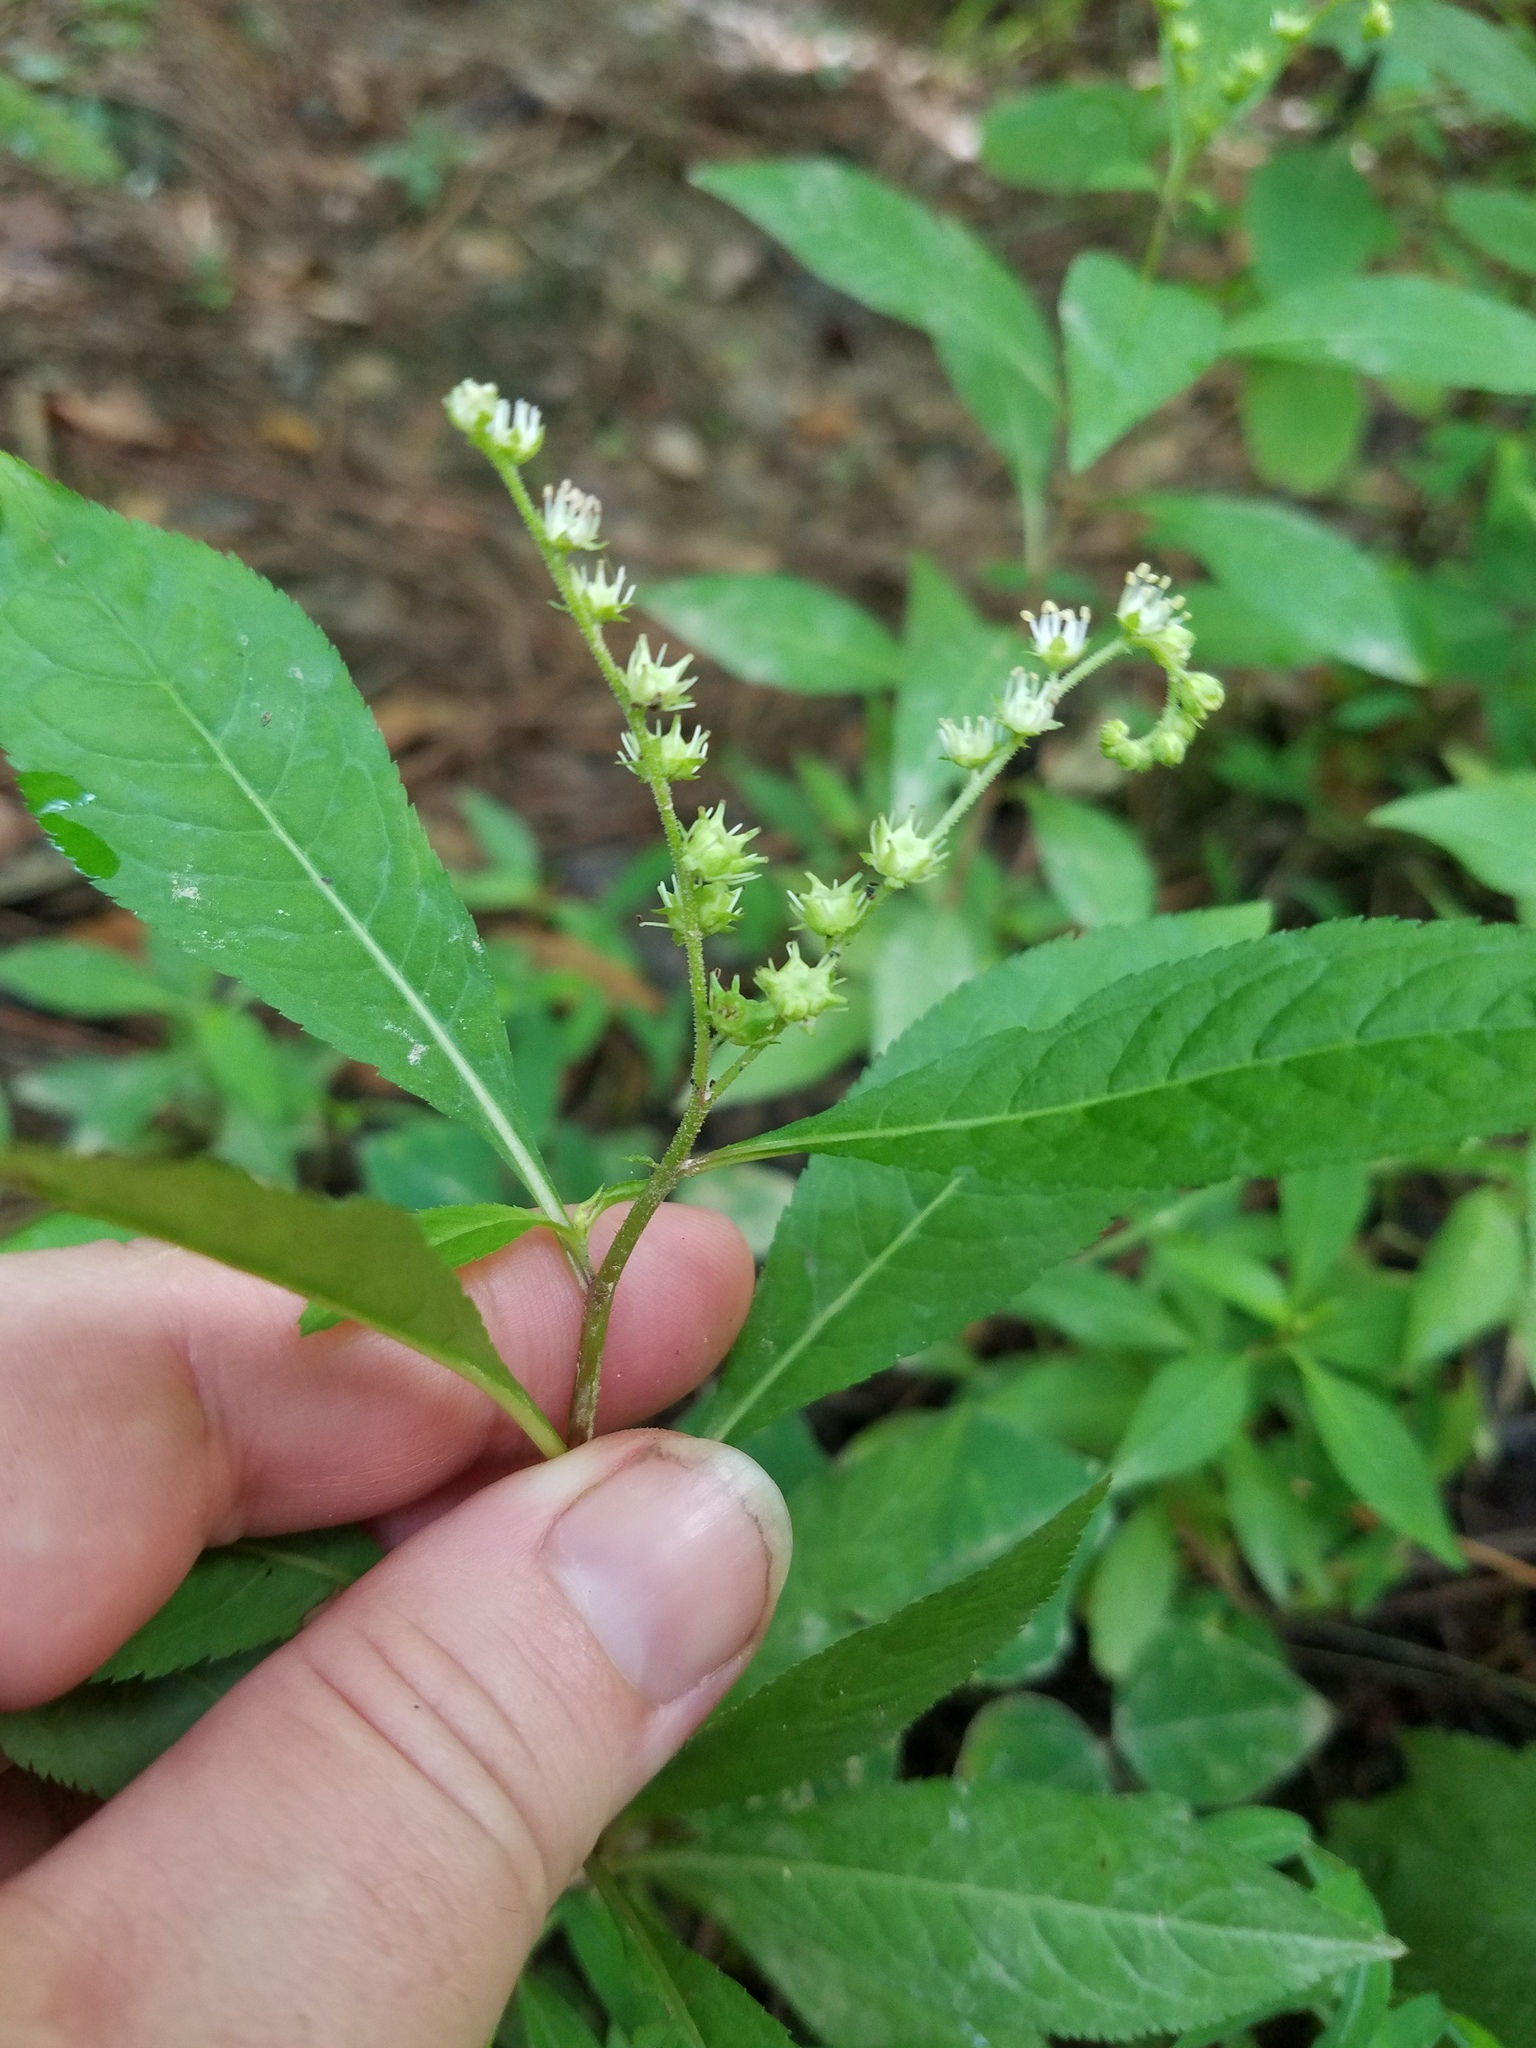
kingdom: Plantae
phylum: Tracheophyta
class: Magnoliopsida
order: Saxifragales
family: Penthoraceae
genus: Penthorum
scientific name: Penthorum sedoides
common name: Ditch stonecrop
